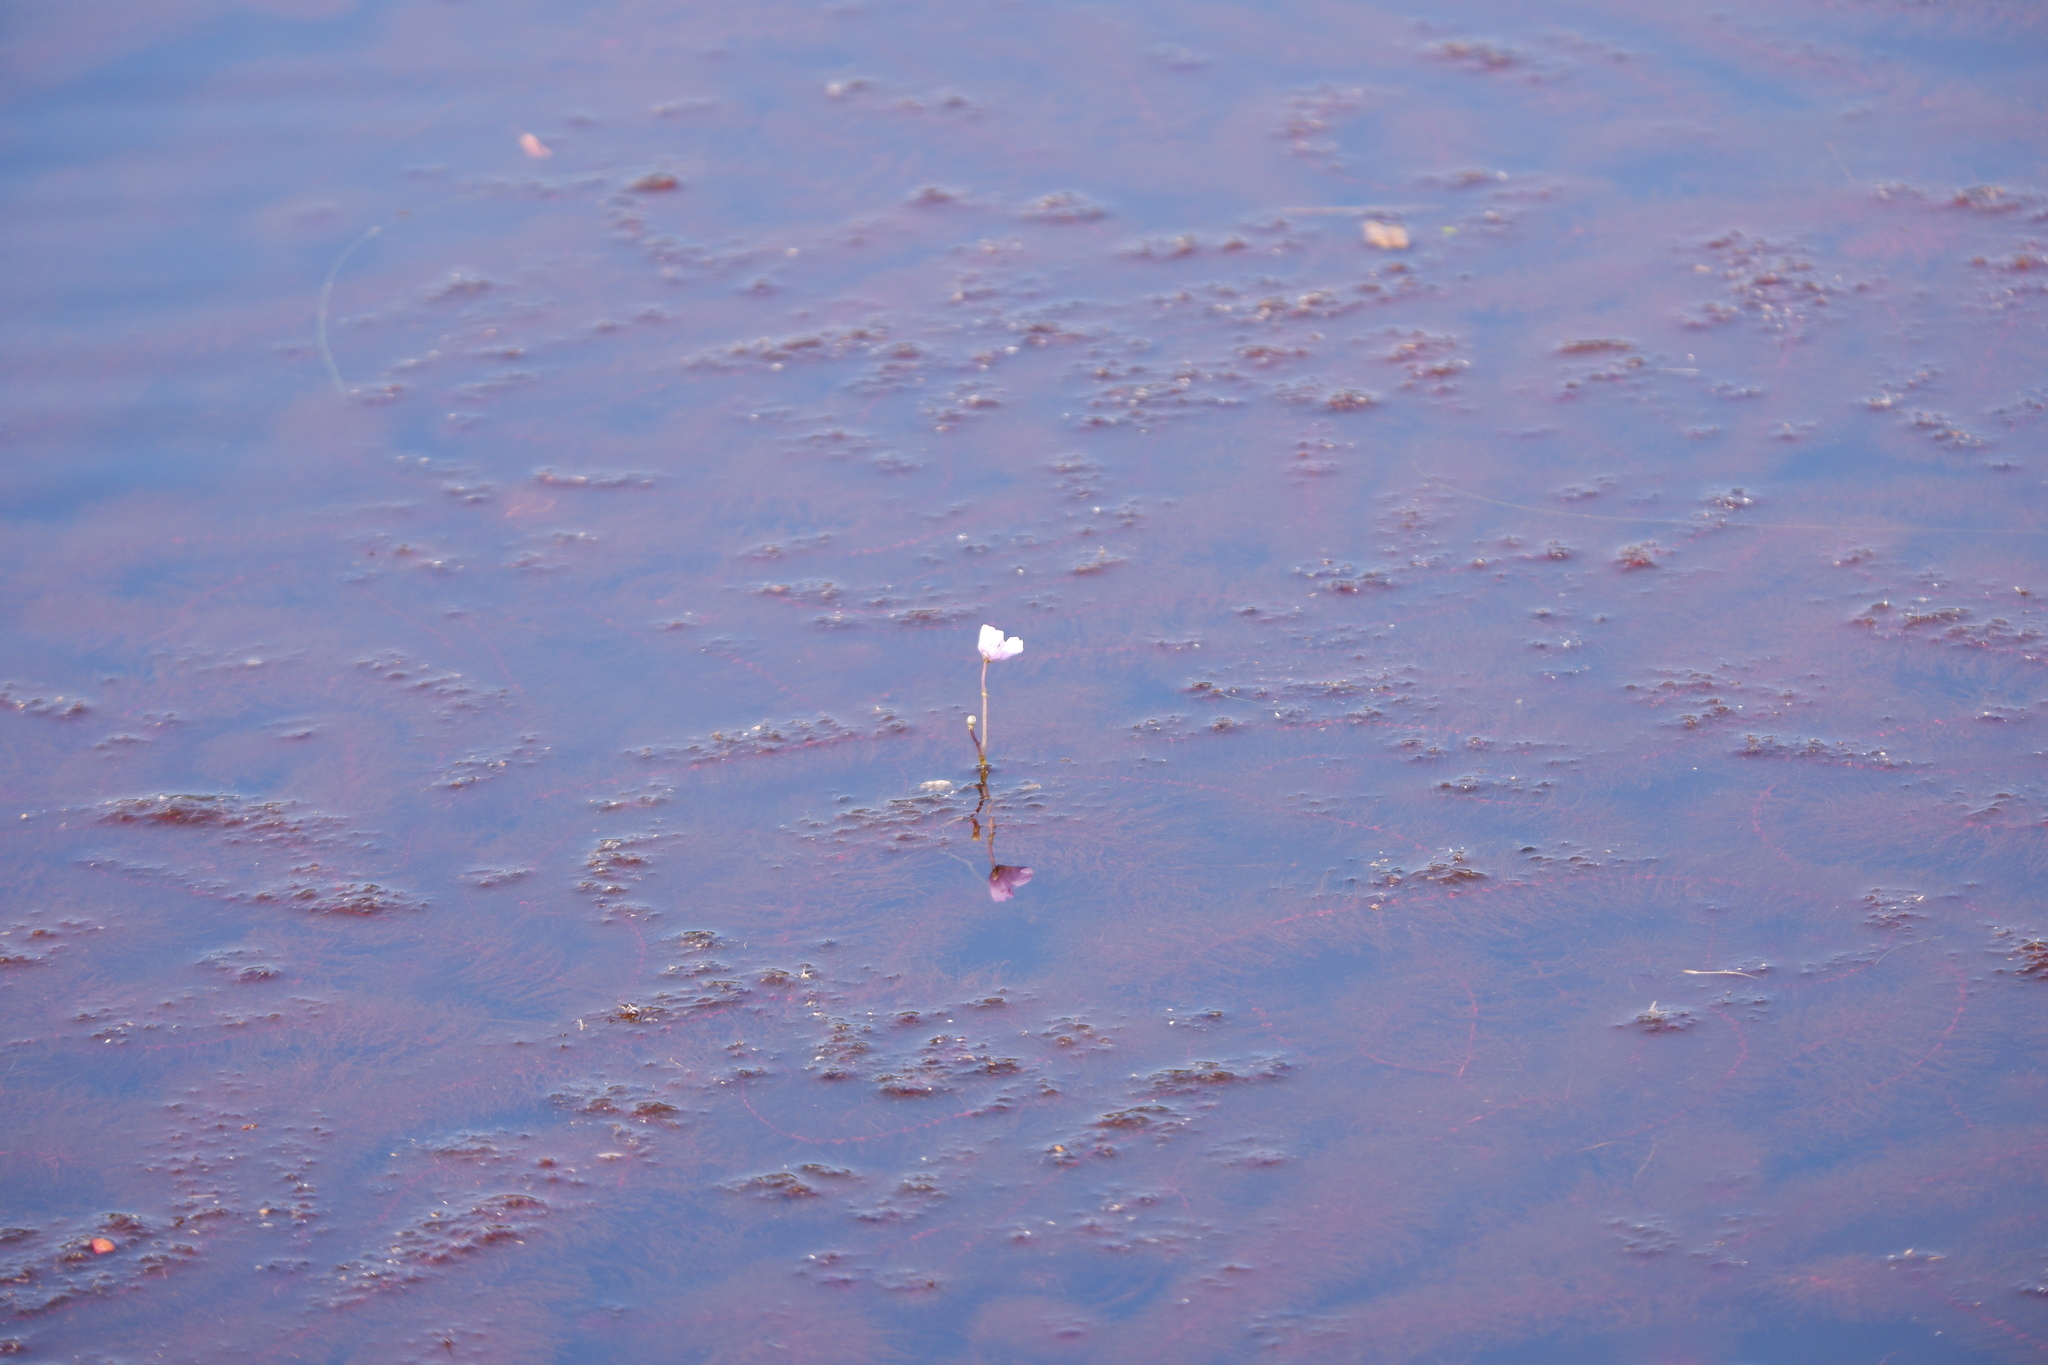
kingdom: Plantae
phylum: Tracheophyta
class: Magnoliopsida
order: Lamiales
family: Lentibulariaceae
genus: Utricularia
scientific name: Utricularia purpurea
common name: Eastern purple bladderwort
